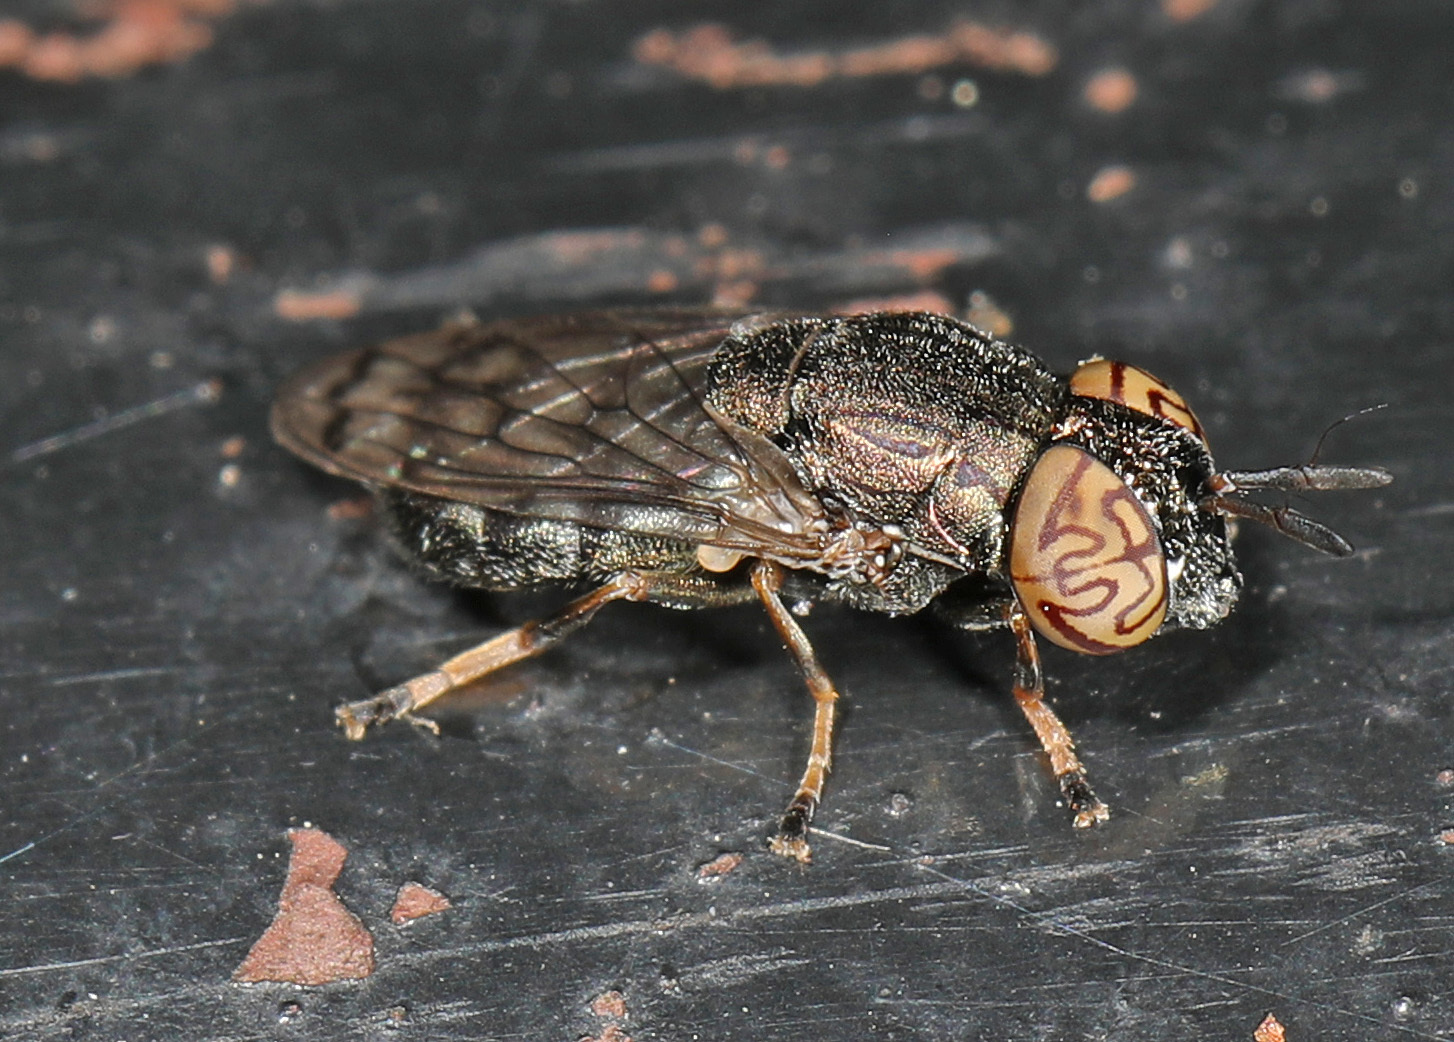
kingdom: Animalia
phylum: Arthropoda
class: Insecta
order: Diptera
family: Syrphidae
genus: Orthonevra
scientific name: Orthonevra nitida
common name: Wavy mucksucker
